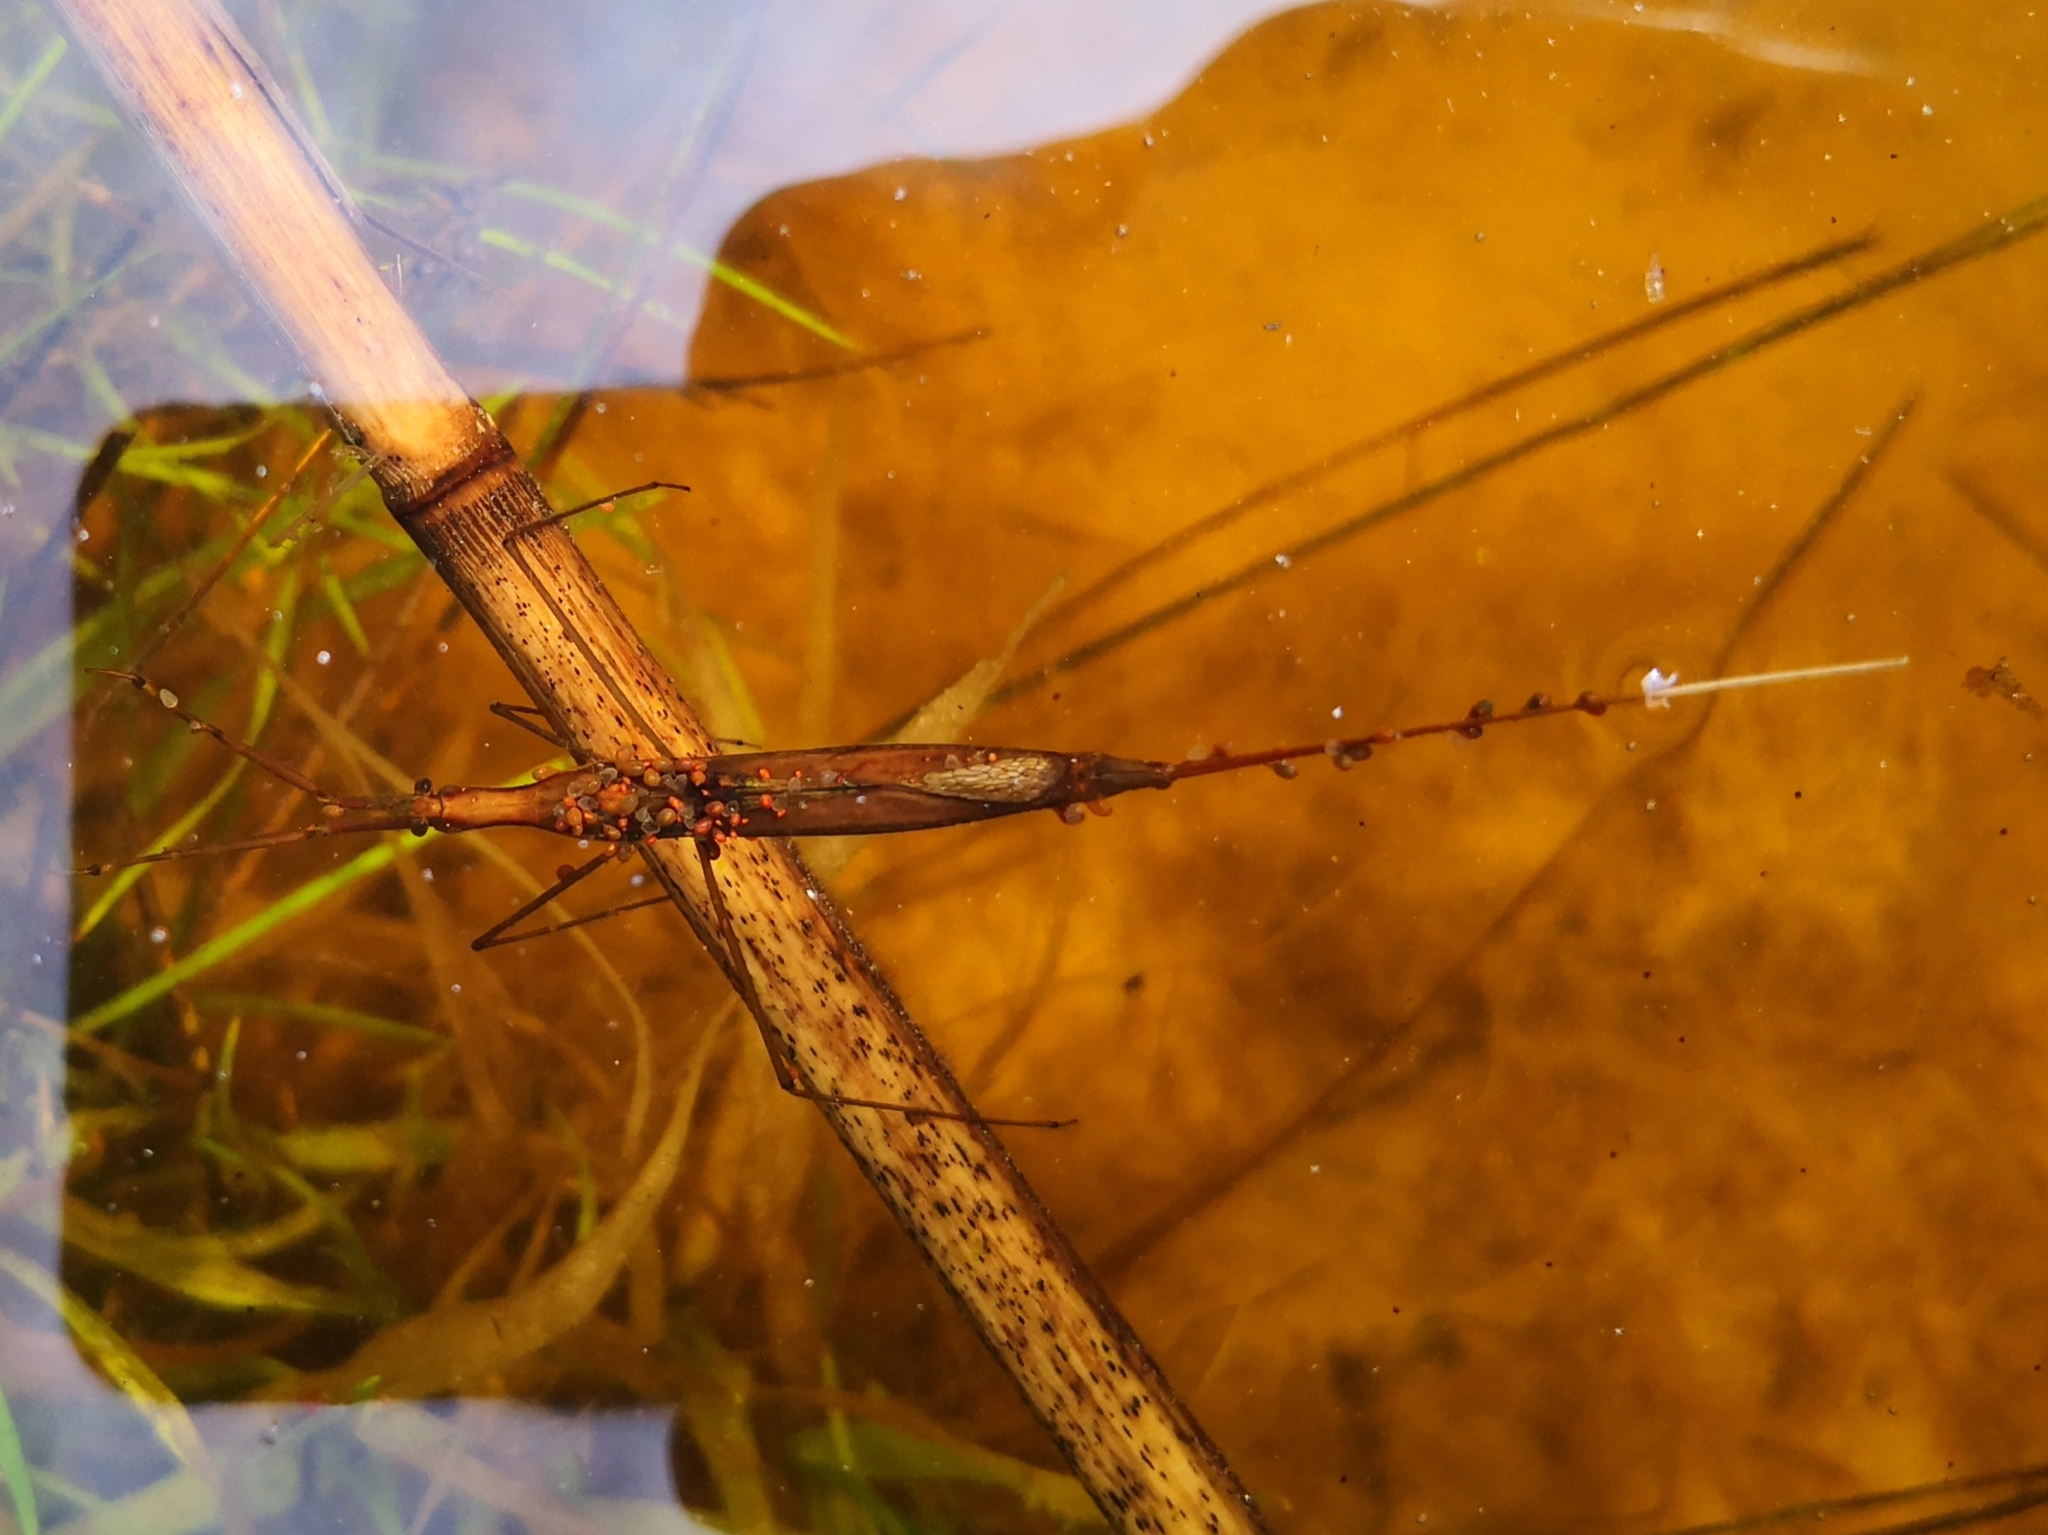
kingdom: Animalia
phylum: Arthropoda
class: Insecta
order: Hemiptera
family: Nepidae
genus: Ranatra
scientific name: Ranatra linearis
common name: Water stick insect
